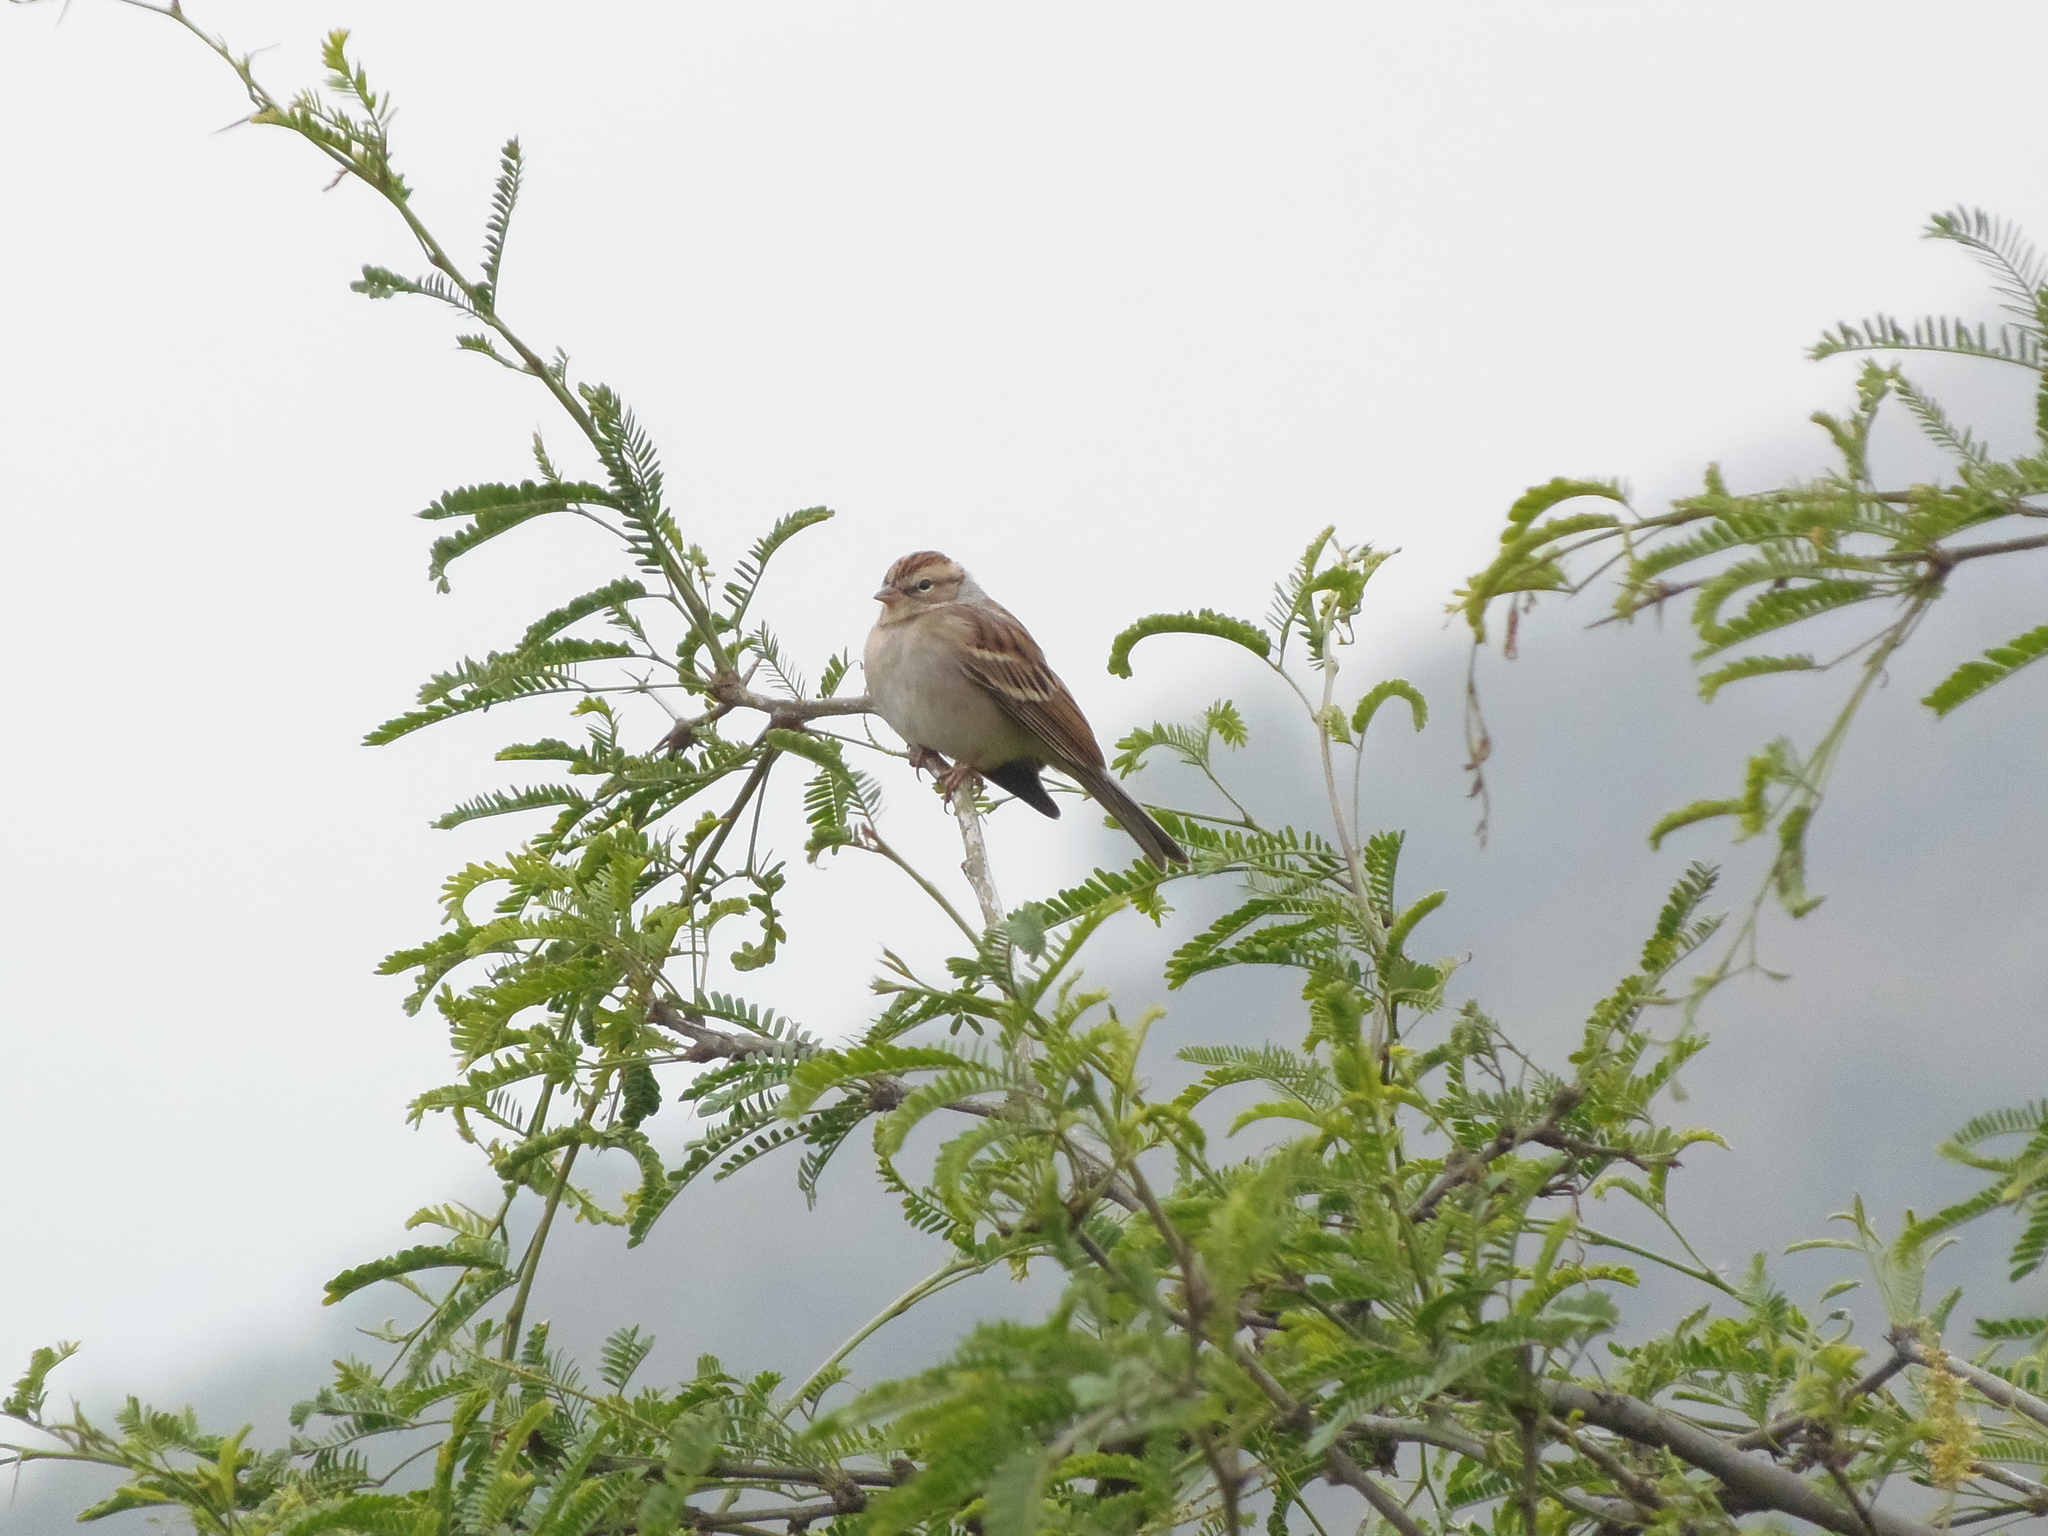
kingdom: Animalia
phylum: Chordata
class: Aves
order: Passeriformes
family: Passerellidae
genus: Spizella
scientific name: Spizella passerina
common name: Chipping sparrow
